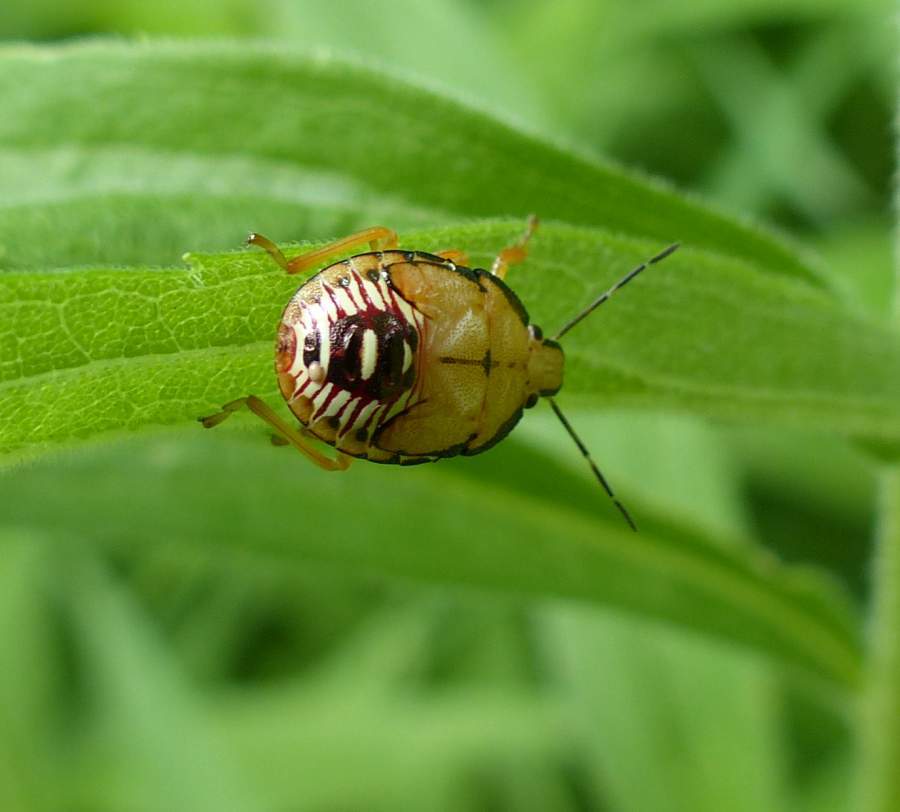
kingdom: Animalia
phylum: Arthropoda
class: Insecta
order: Hemiptera
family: Pentatomidae
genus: Podisus
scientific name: Podisus maculiventris
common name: Spined soldier bug
